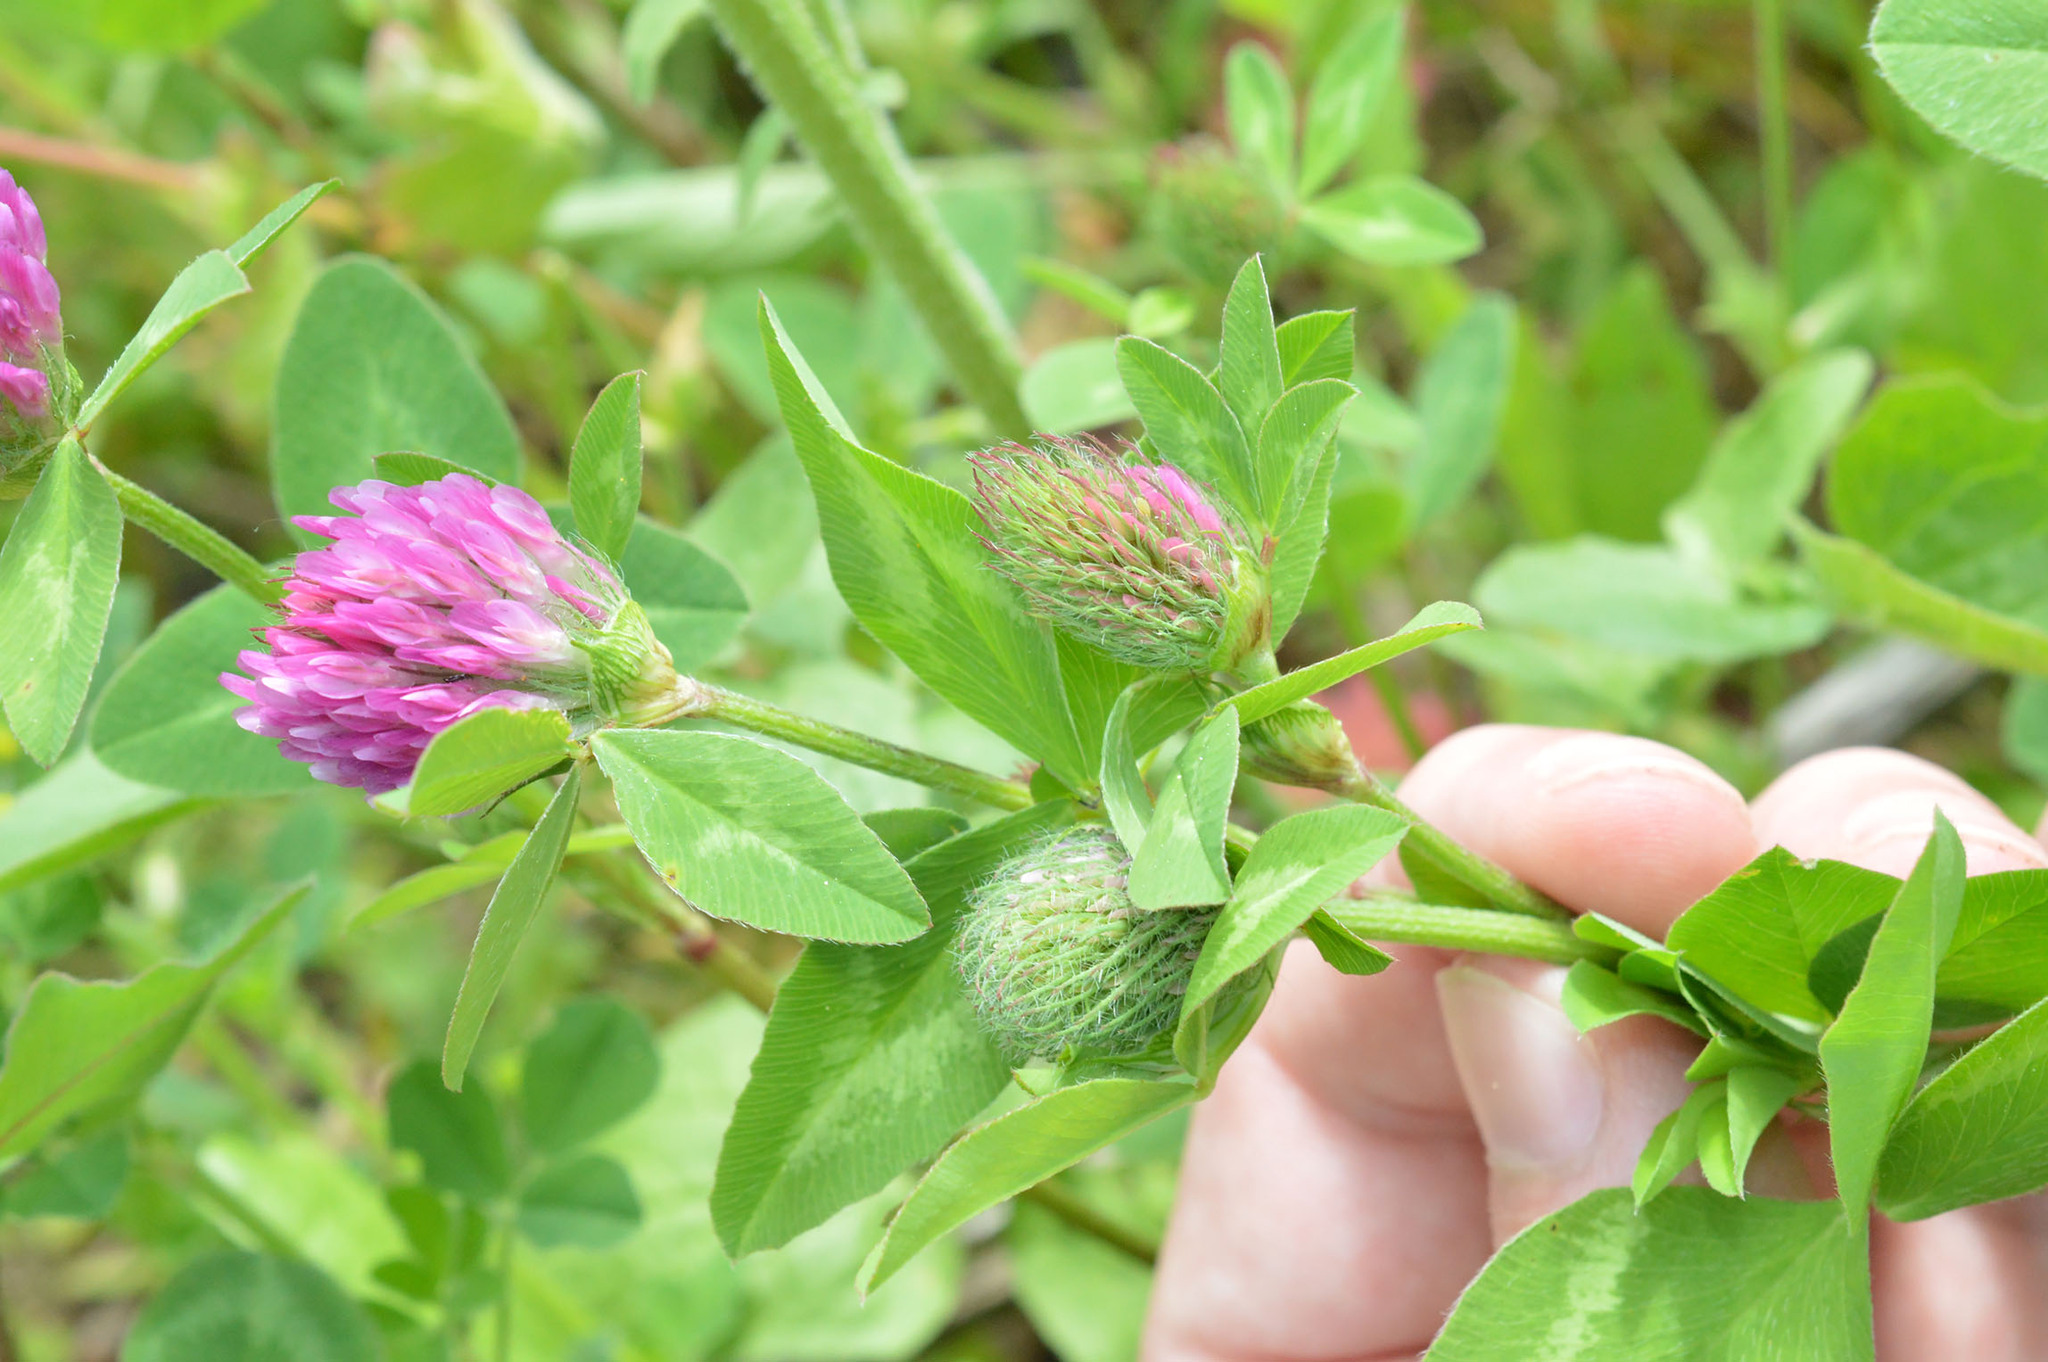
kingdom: Plantae
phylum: Tracheophyta
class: Magnoliopsida
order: Fabales
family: Fabaceae
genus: Trifolium
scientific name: Trifolium pratense
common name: Red clover
